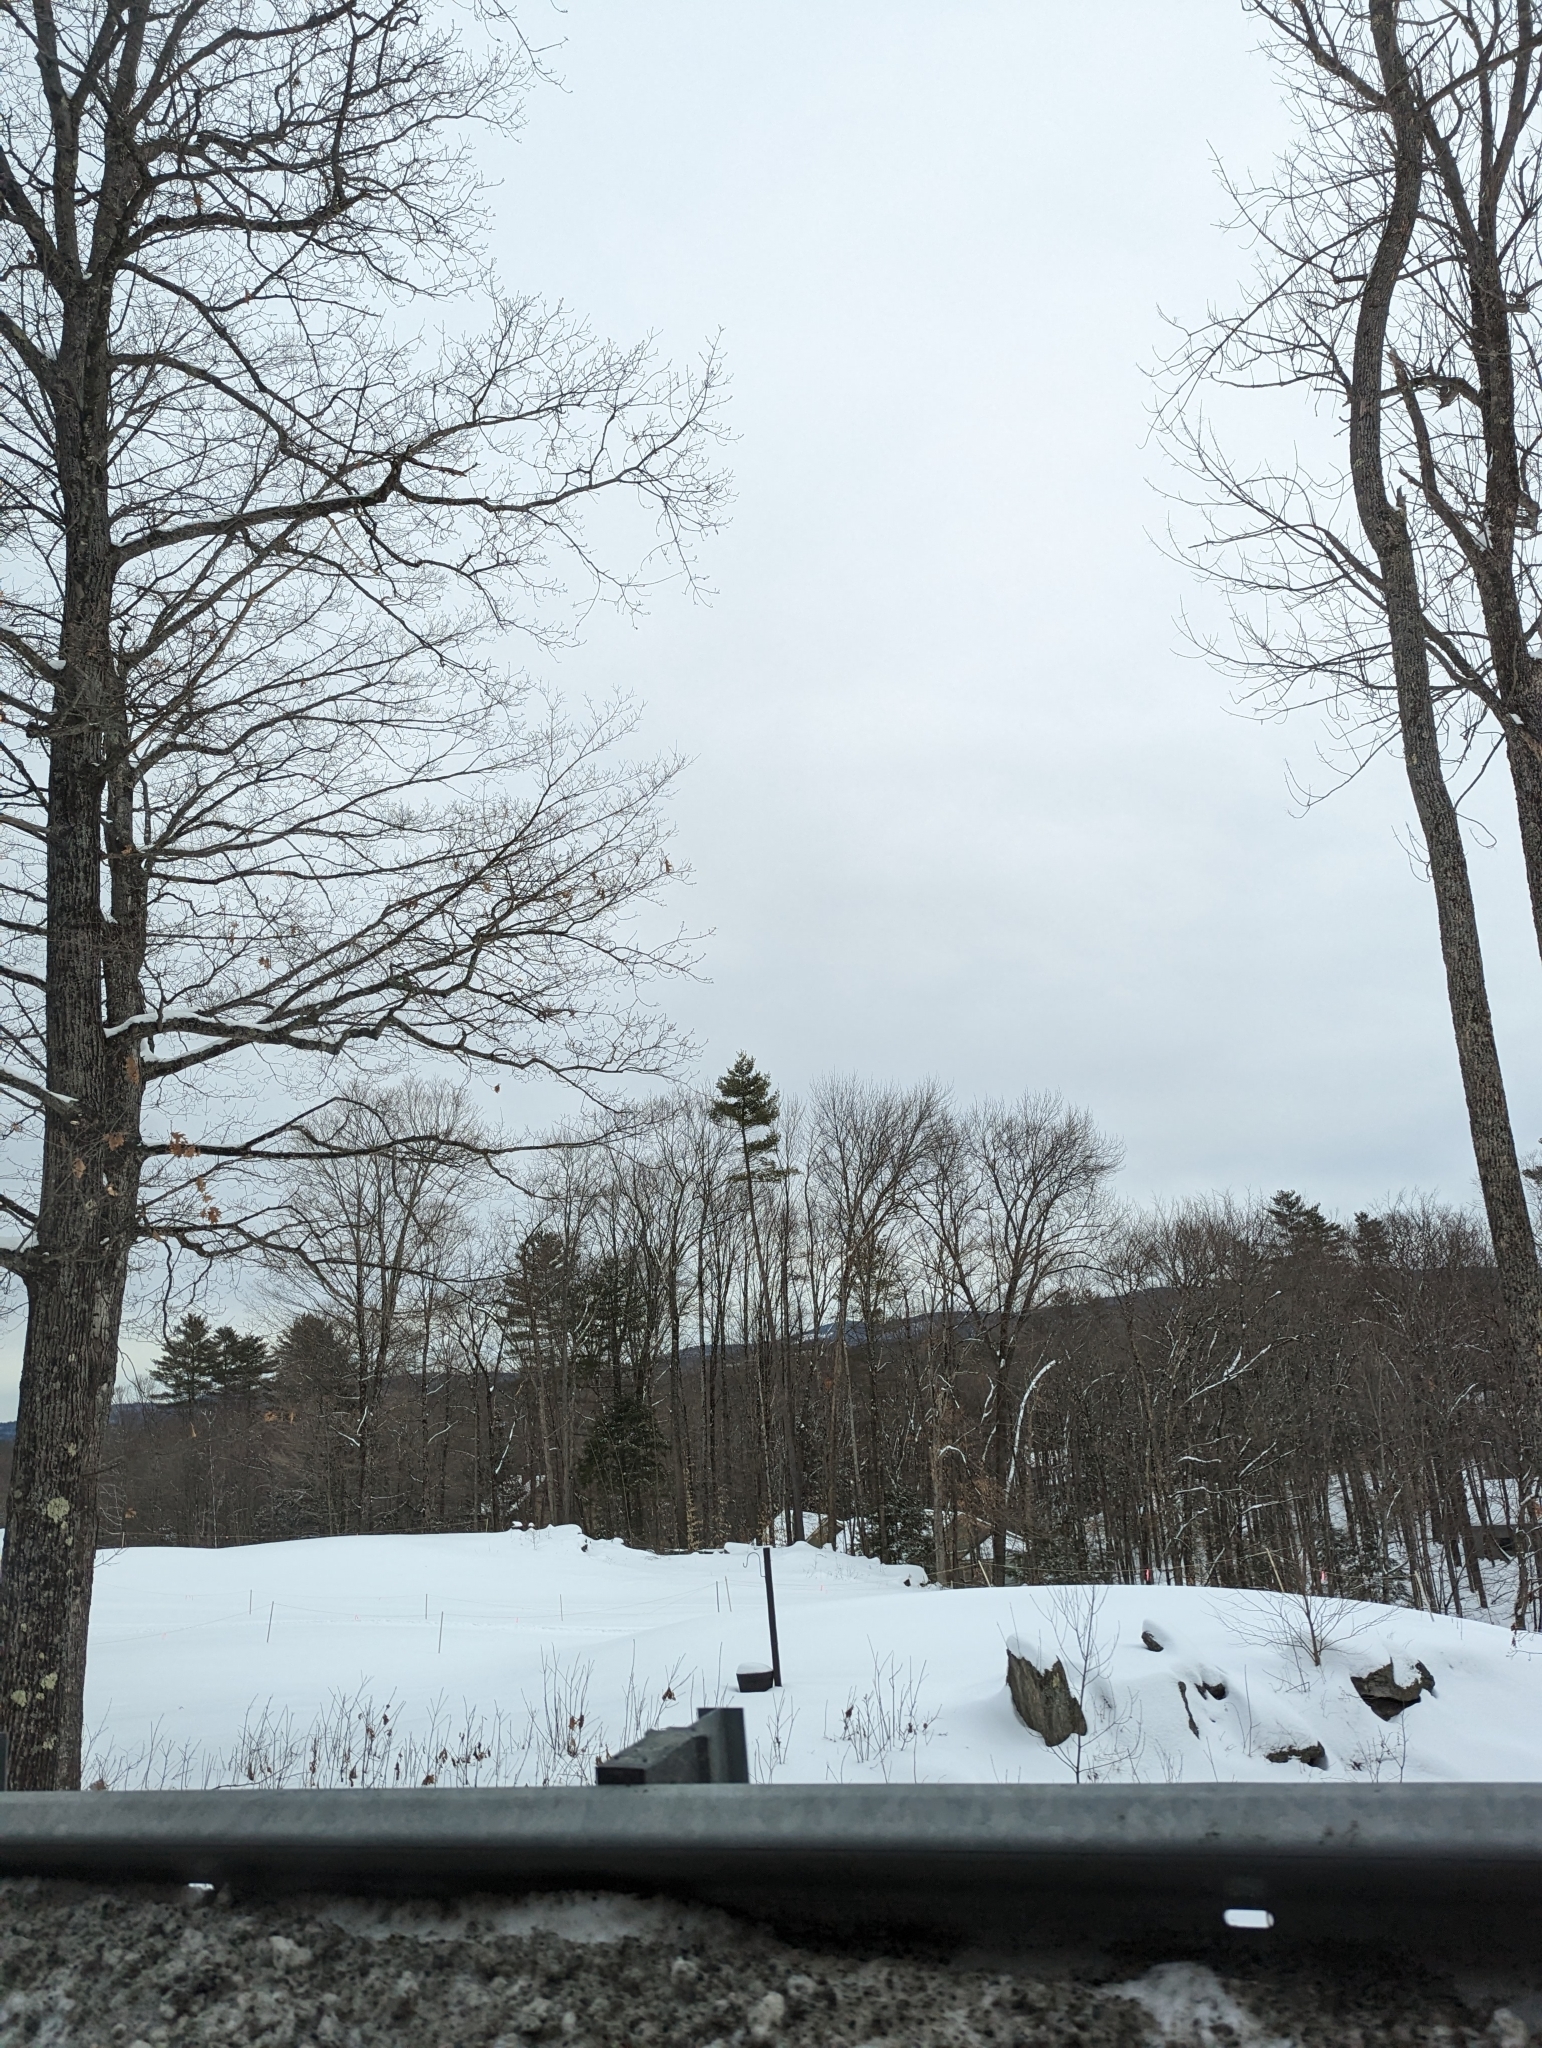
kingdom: Plantae
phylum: Tracheophyta
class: Pinopsida
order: Pinales
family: Pinaceae
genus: Pinus
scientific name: Pinus strobus
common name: Weymouth pine
